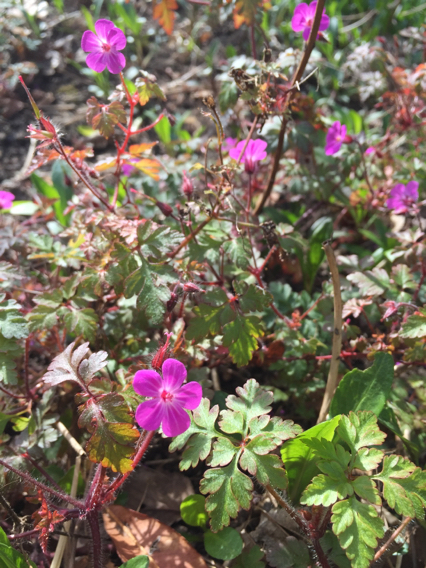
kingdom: Plantae
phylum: Tracheophyta
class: Magnoliopsida
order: Geraniales
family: Geraniaceae
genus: Geranium
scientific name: Geranium robertianum
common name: Herb-robert
